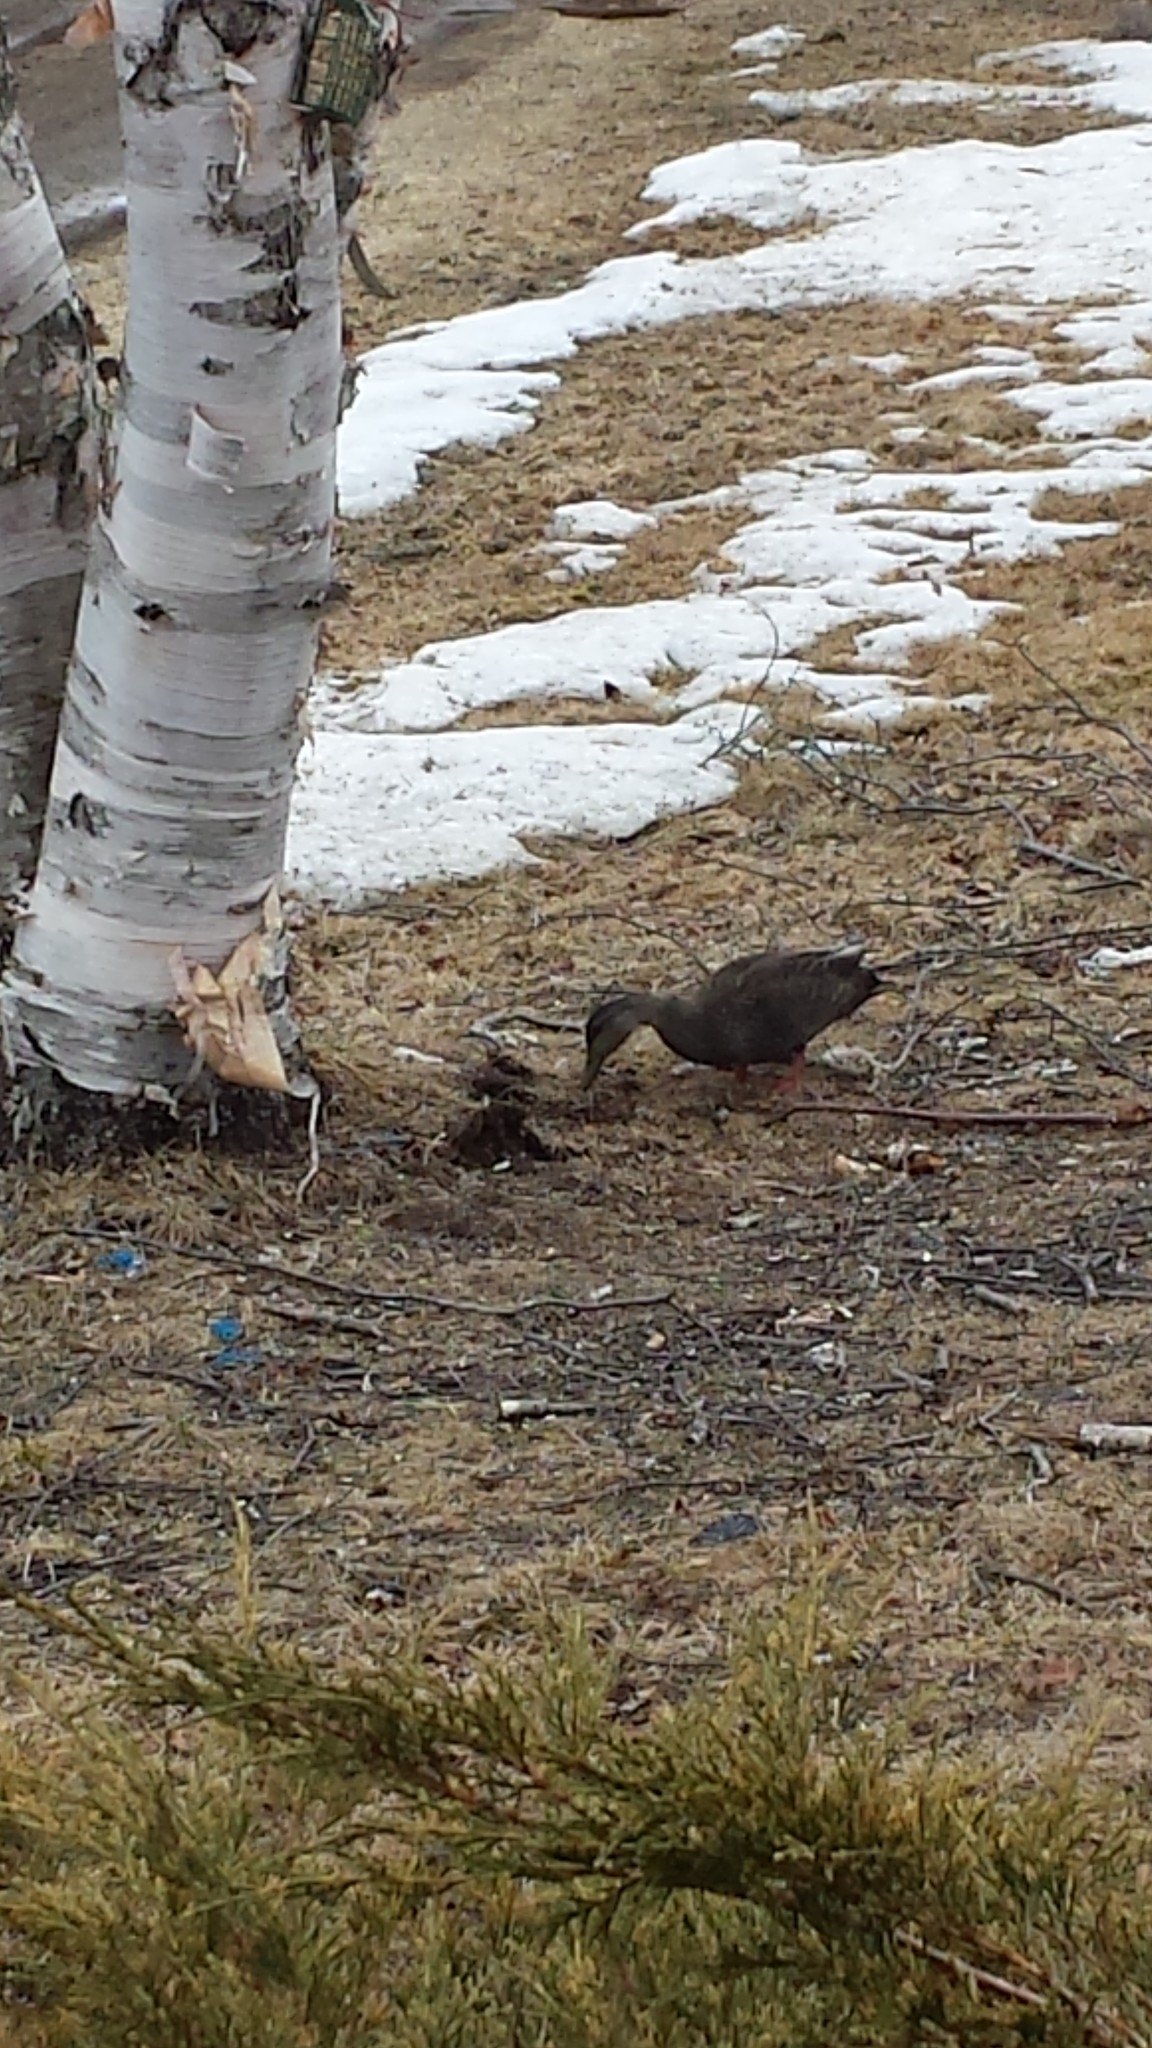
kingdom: Animalia
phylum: Chordata
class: Aves
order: Anseriformes
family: Anatidae
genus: Anas
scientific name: Anas rubripes
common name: American black duck
